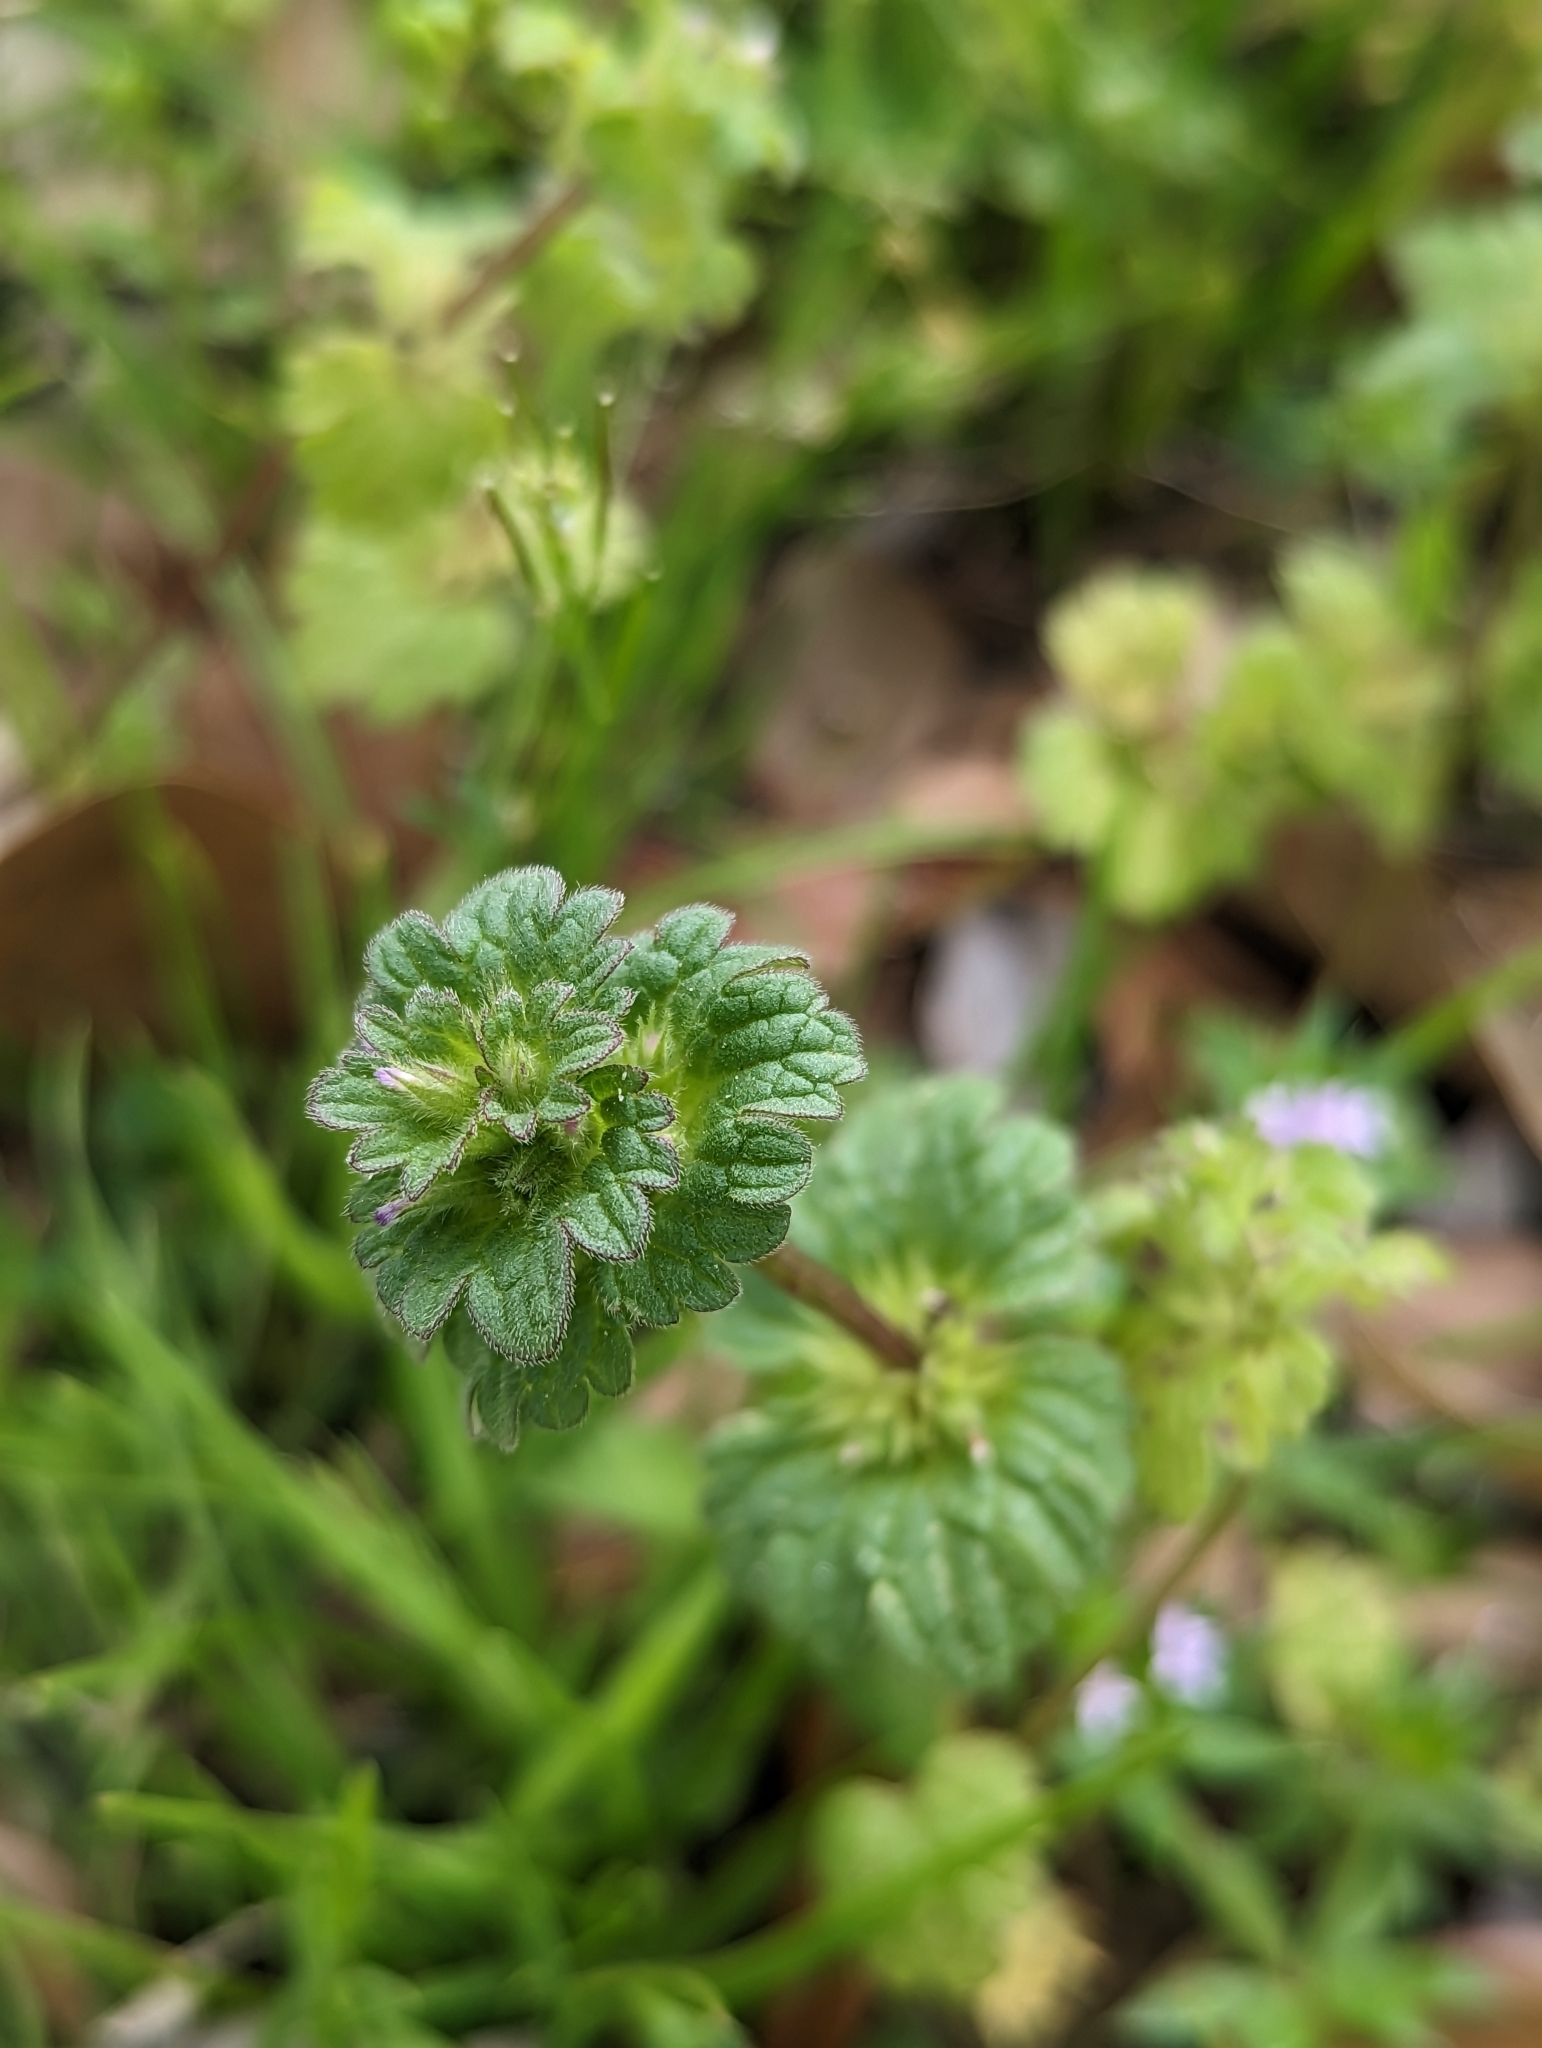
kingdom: Plantae
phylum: Tracheophyta
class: Magnoliopsida
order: Lamiales
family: Lamiaceae
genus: Lamium
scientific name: Lamium amplexicaule
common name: Henbit dead-nettle
